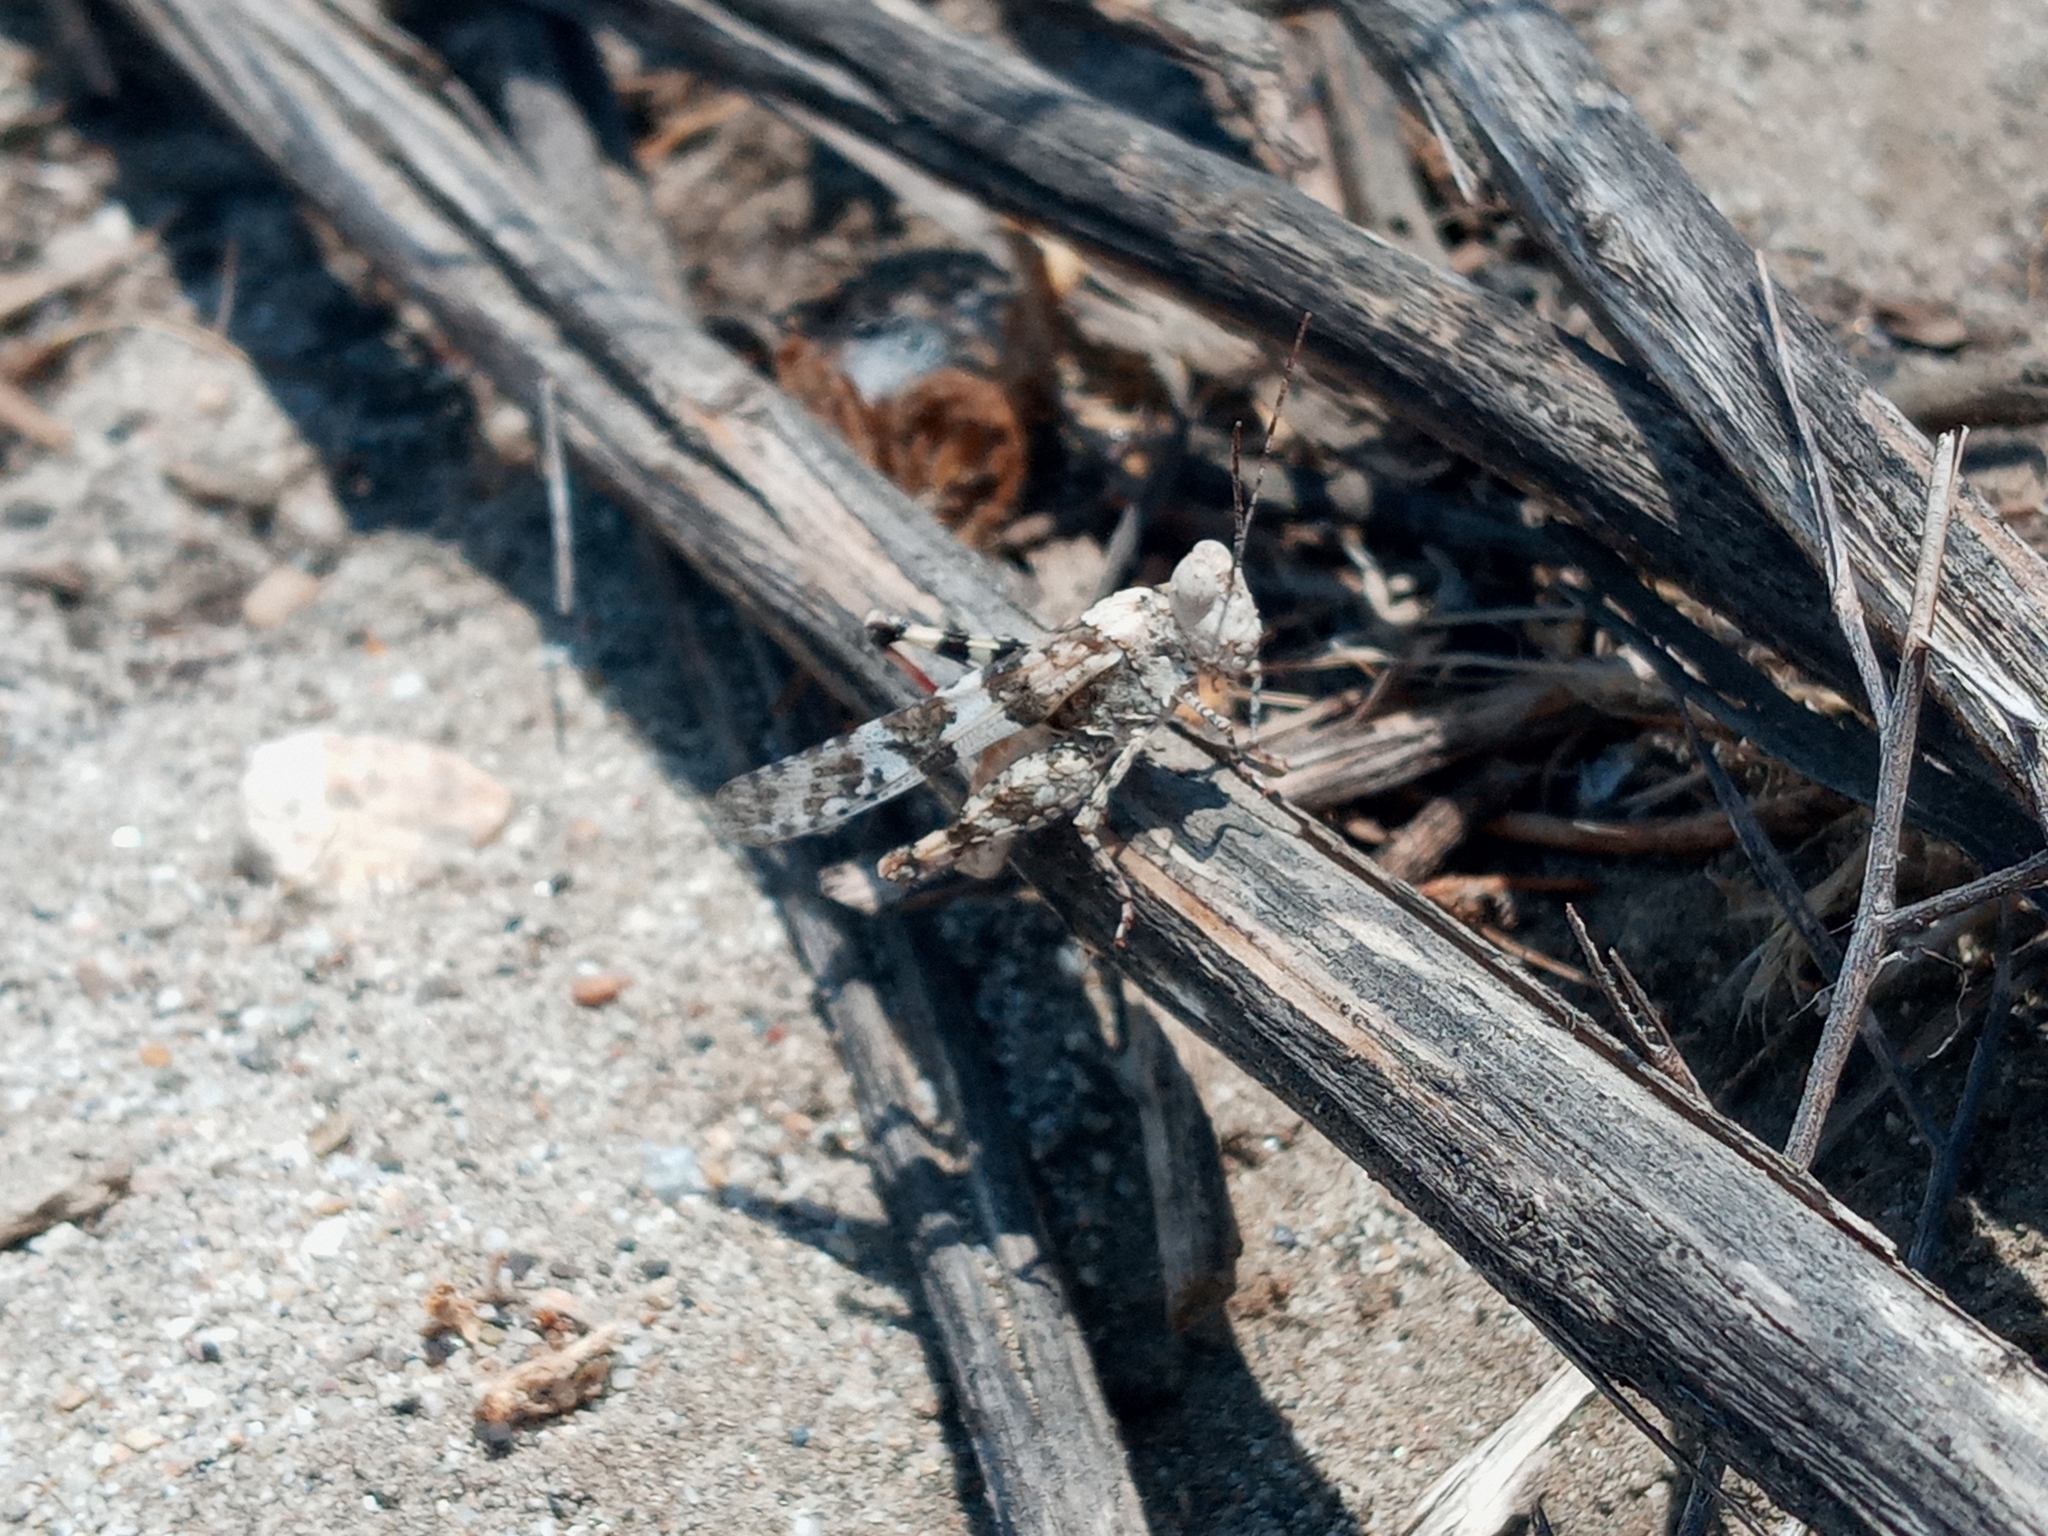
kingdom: Animalia
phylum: Arthropoda
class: Insecta
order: Orthoptera
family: Acrididae
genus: Trimerotropis
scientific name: Trimerotropis californica
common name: California band-winged grasshopper
